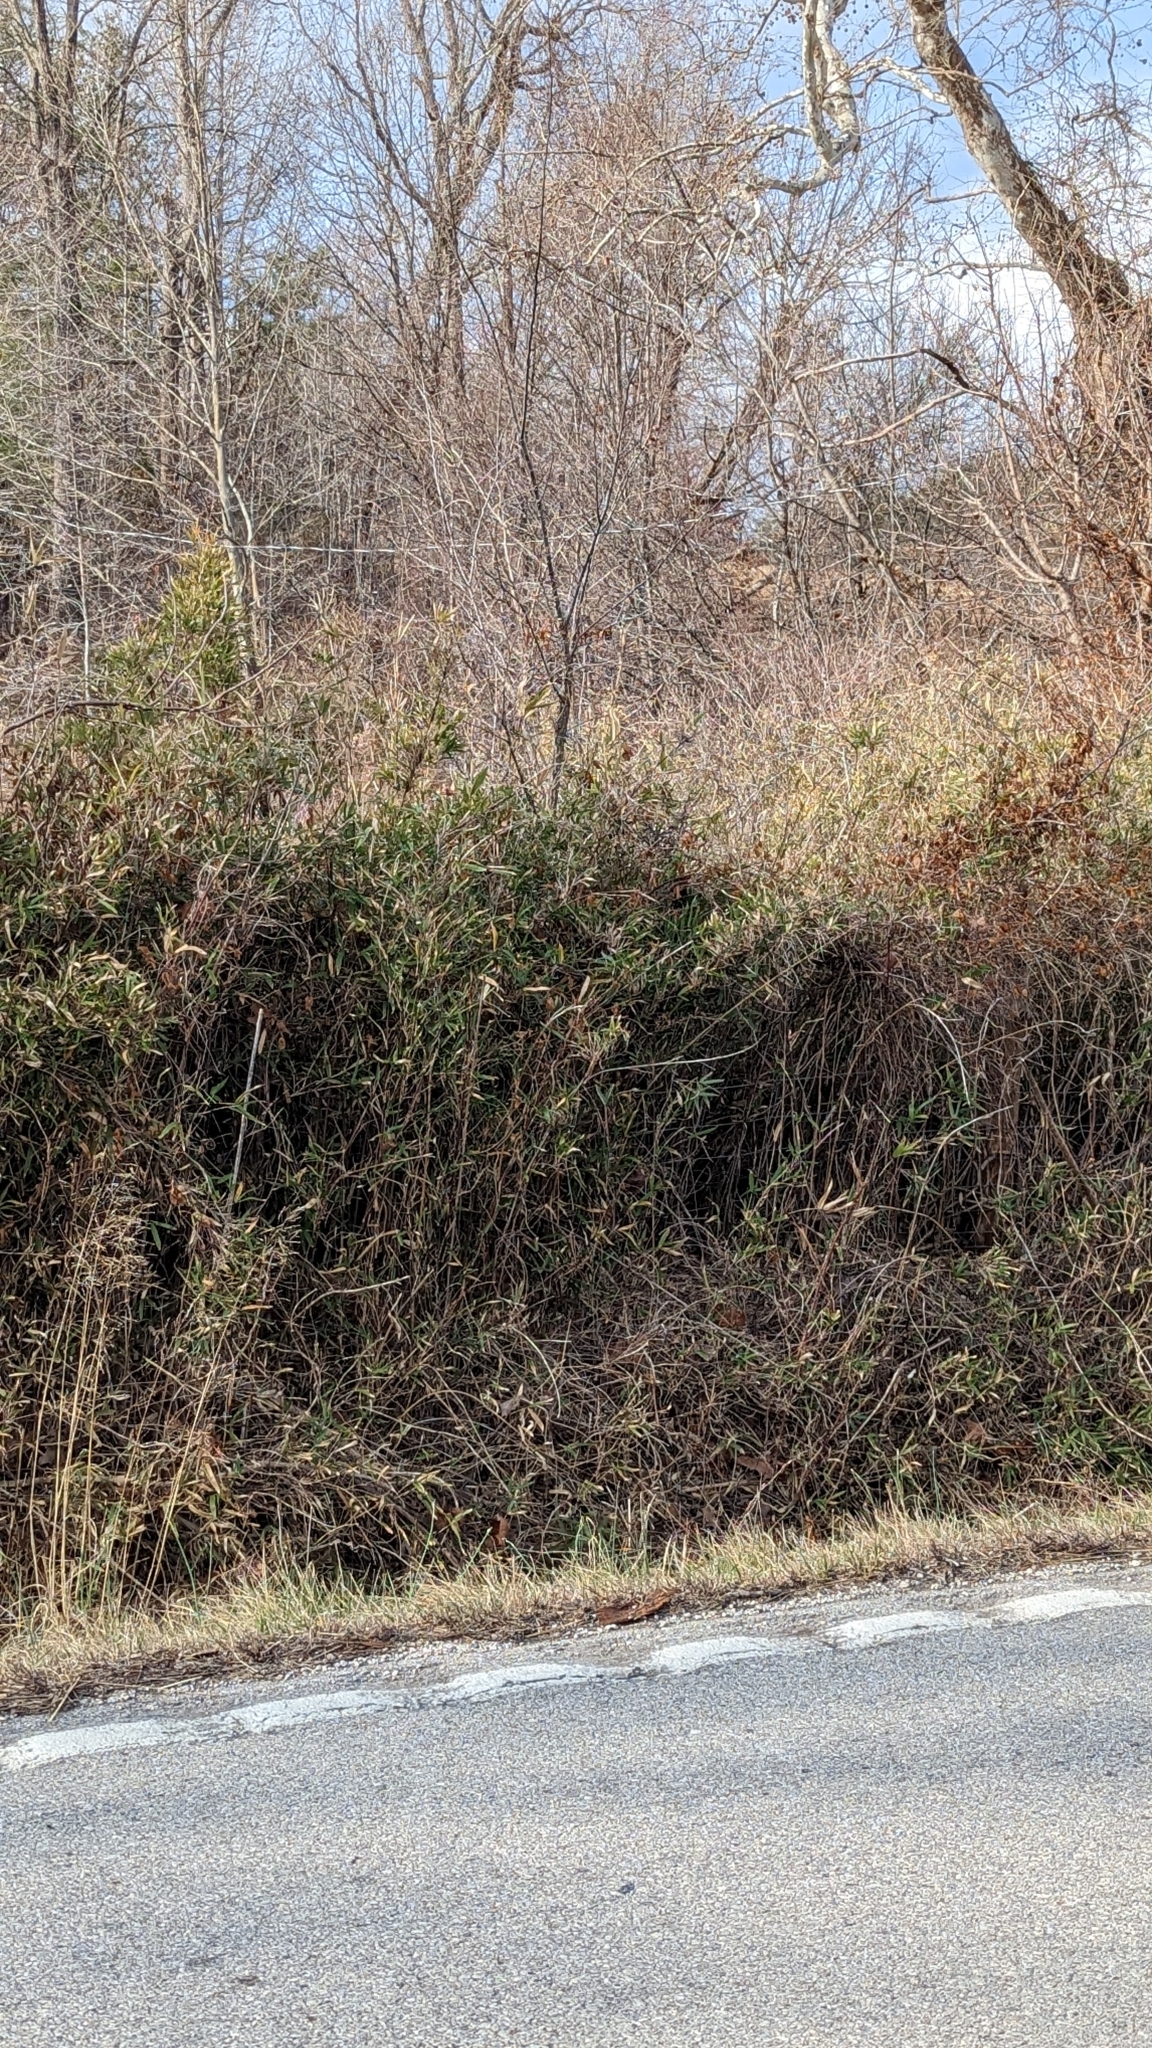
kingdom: Plantae
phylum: Tracheophyta
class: Liliopsida
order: Poales
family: Poaceae
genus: Arundinaria
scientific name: Arundinaria gigantea
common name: Giant cane
